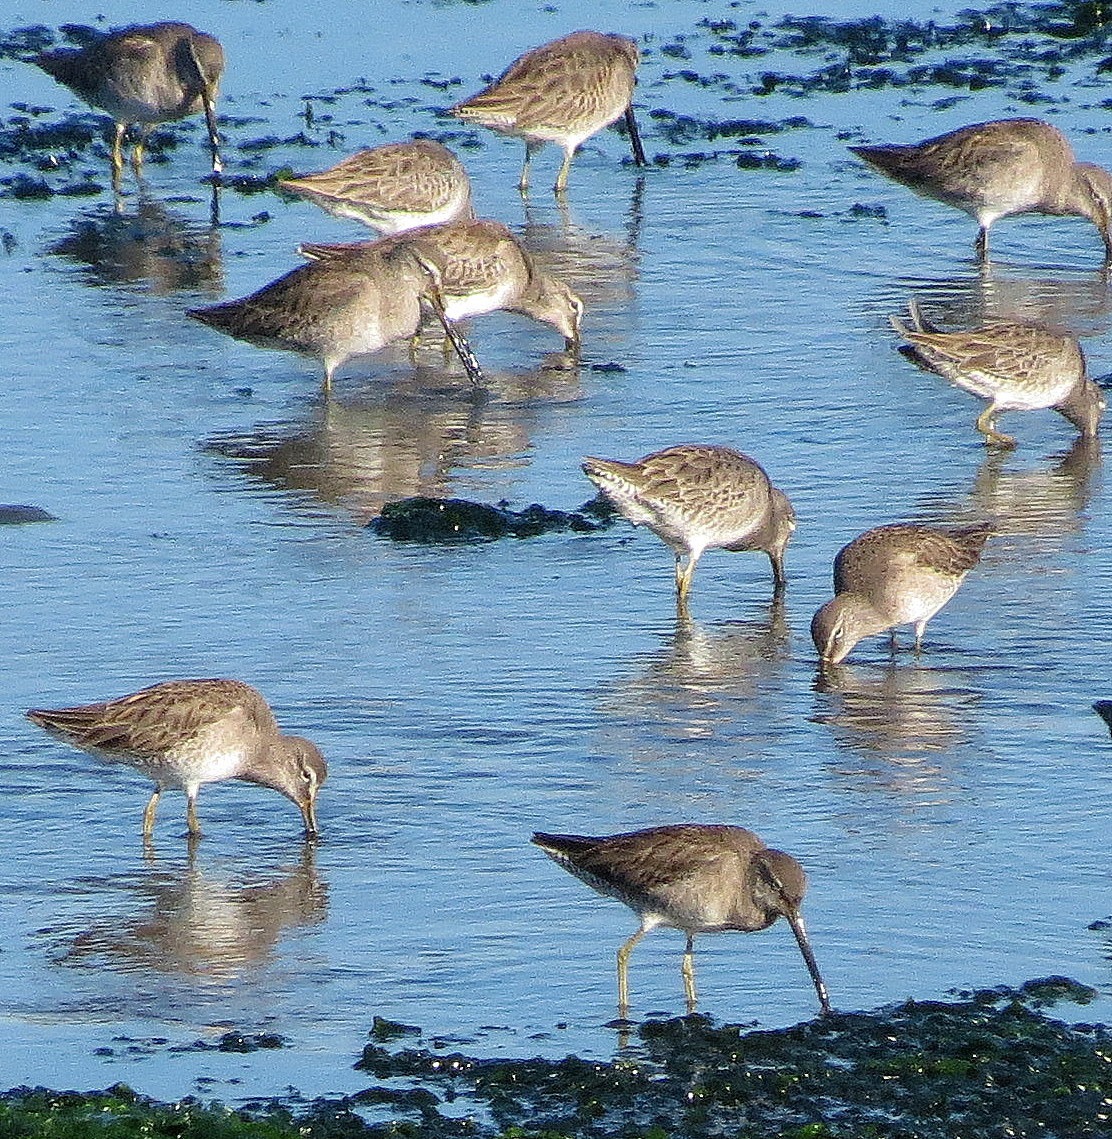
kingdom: Animalia
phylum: Chordata
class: Aves
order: Charadriiformes
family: Scolopacidae
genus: Limnodromus
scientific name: Limnodromus
